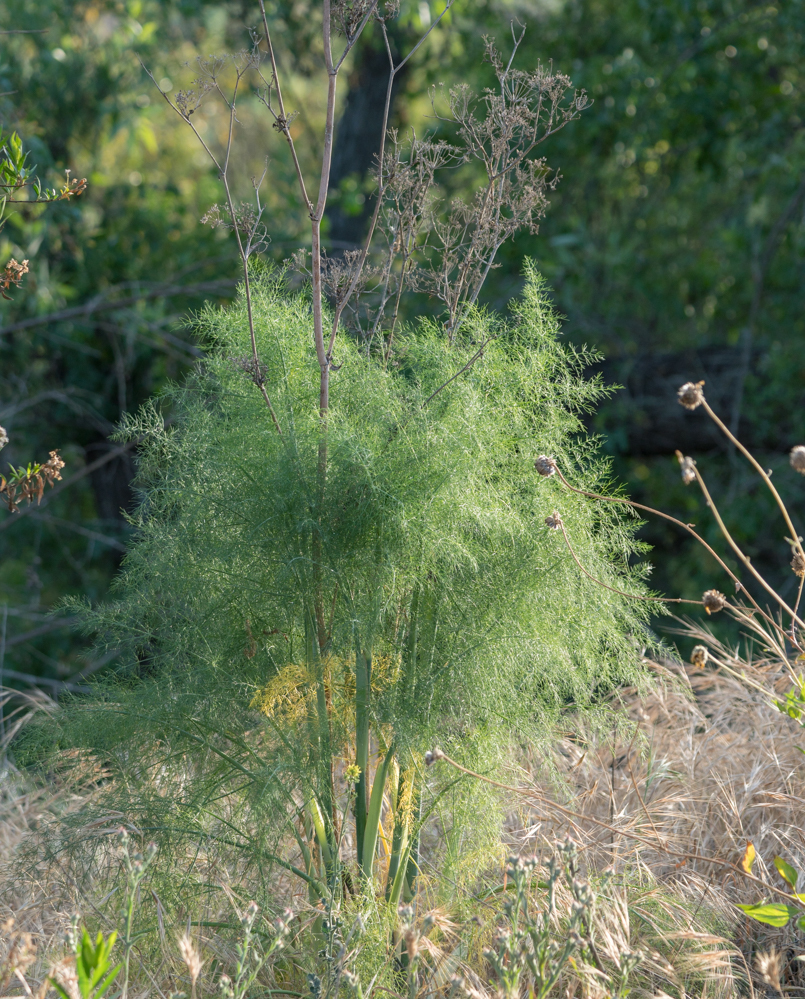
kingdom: Plantae
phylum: Tracheophyta
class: Magnoliopsida
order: Apiales
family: Apiaceae
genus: Foeniculum
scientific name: Foeniculum vulgare
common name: Fennel
